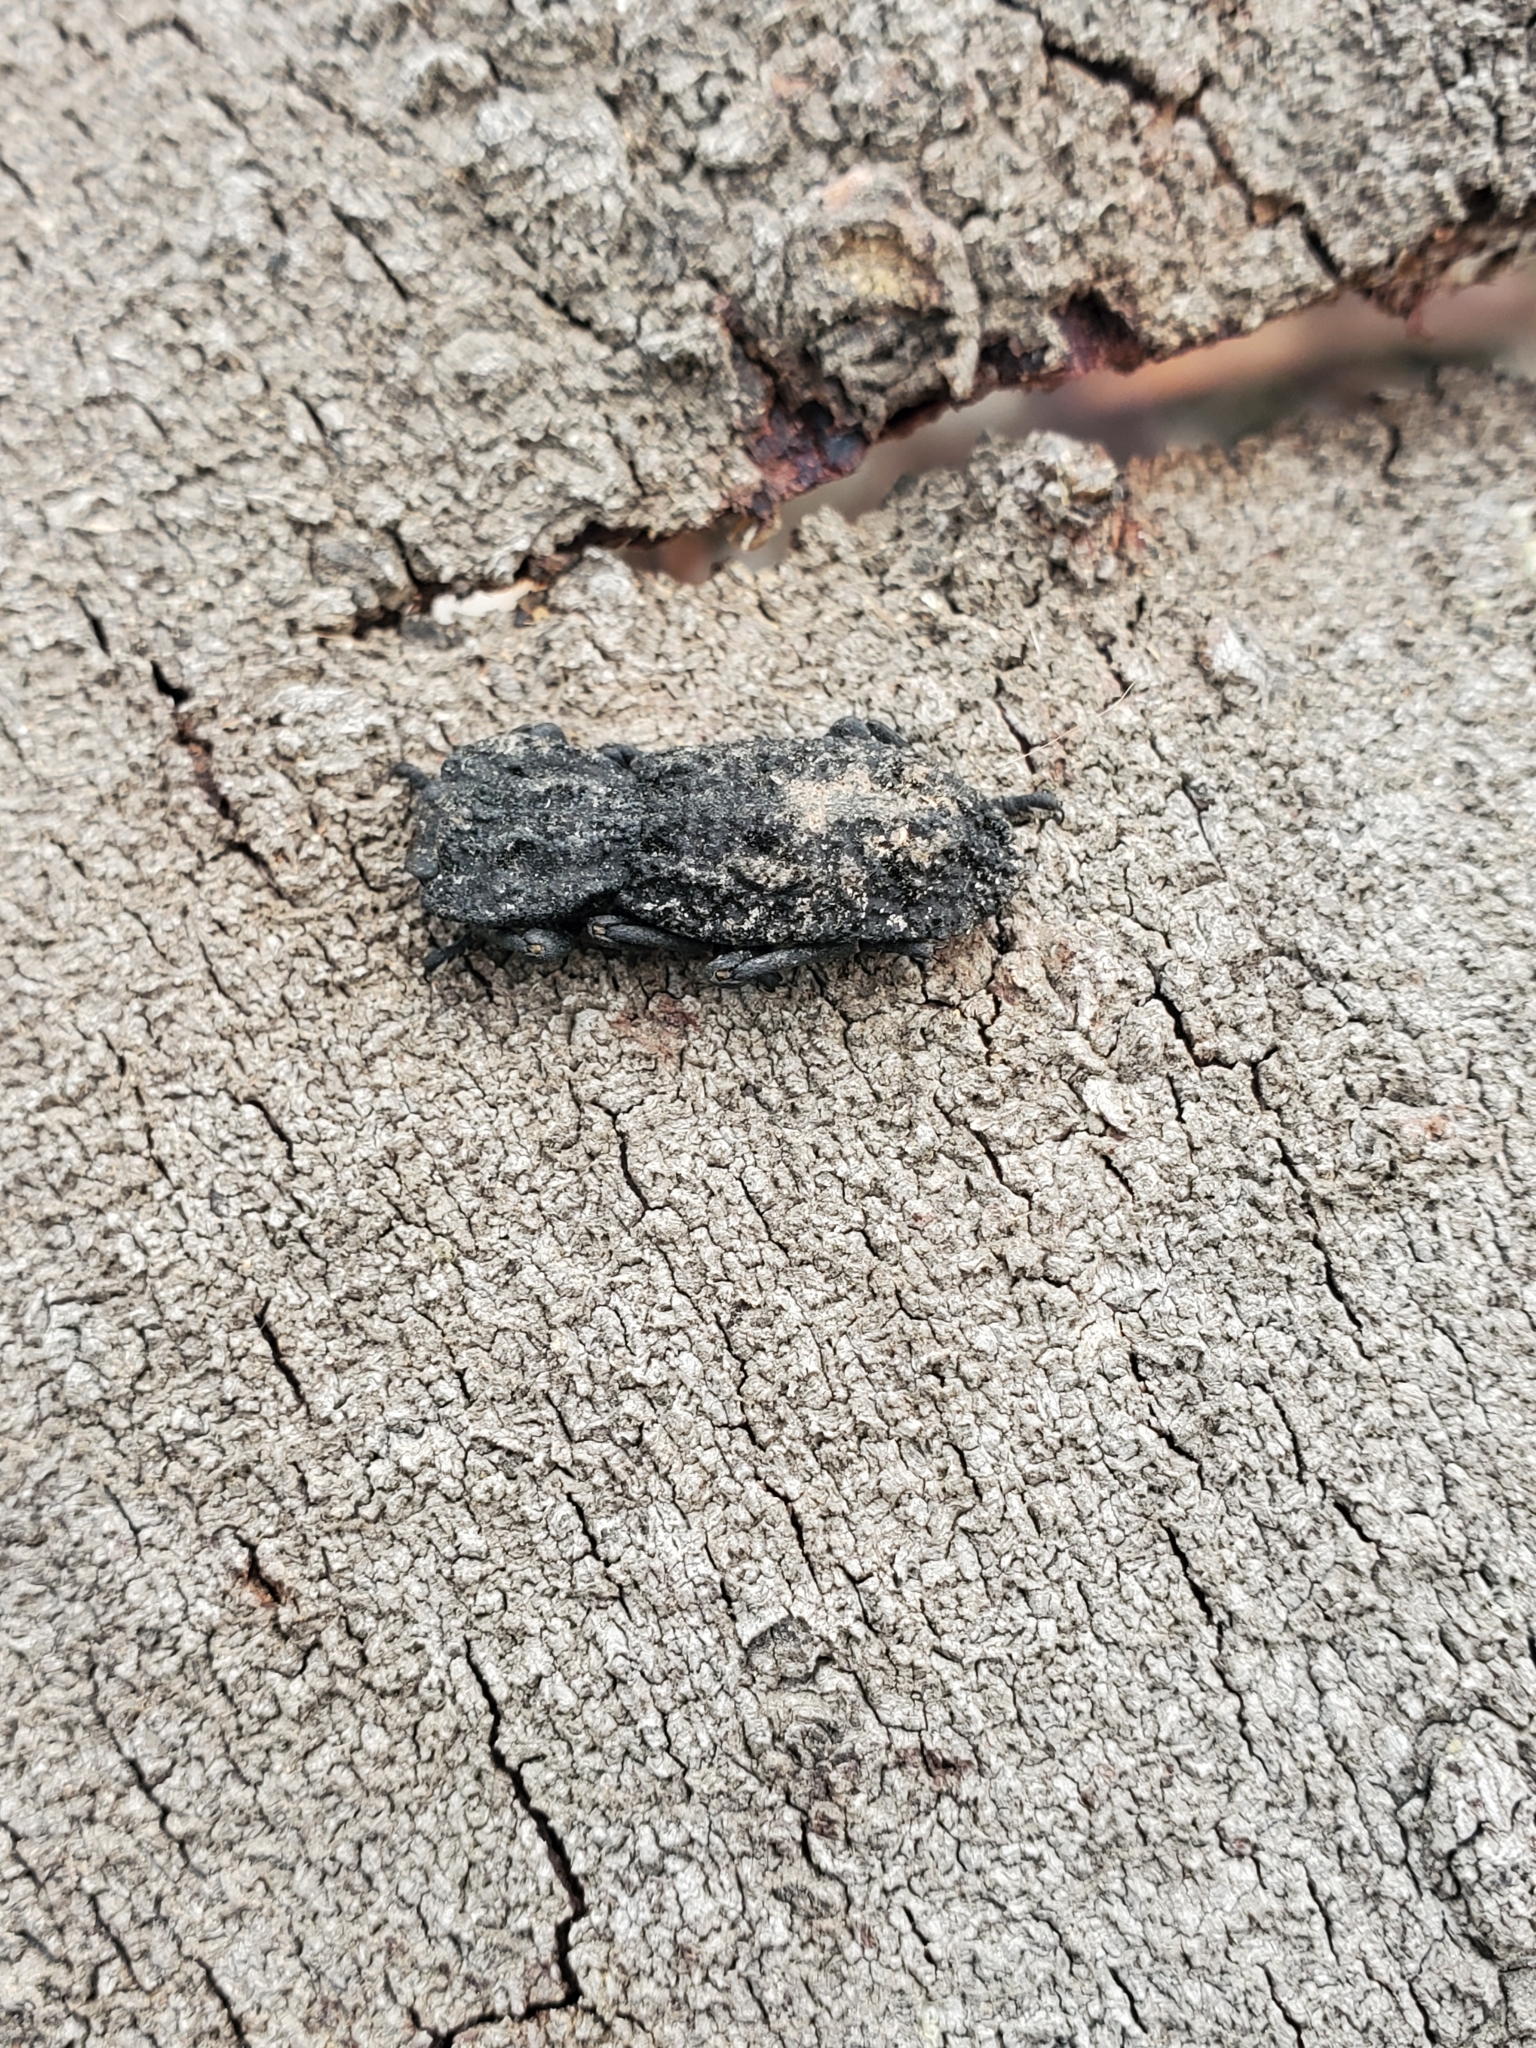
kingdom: Animalia
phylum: Arthropoda
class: Insecta
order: Coleoptera
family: Zopheridae
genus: Phloeodes
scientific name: Phloeodes diabolicus
